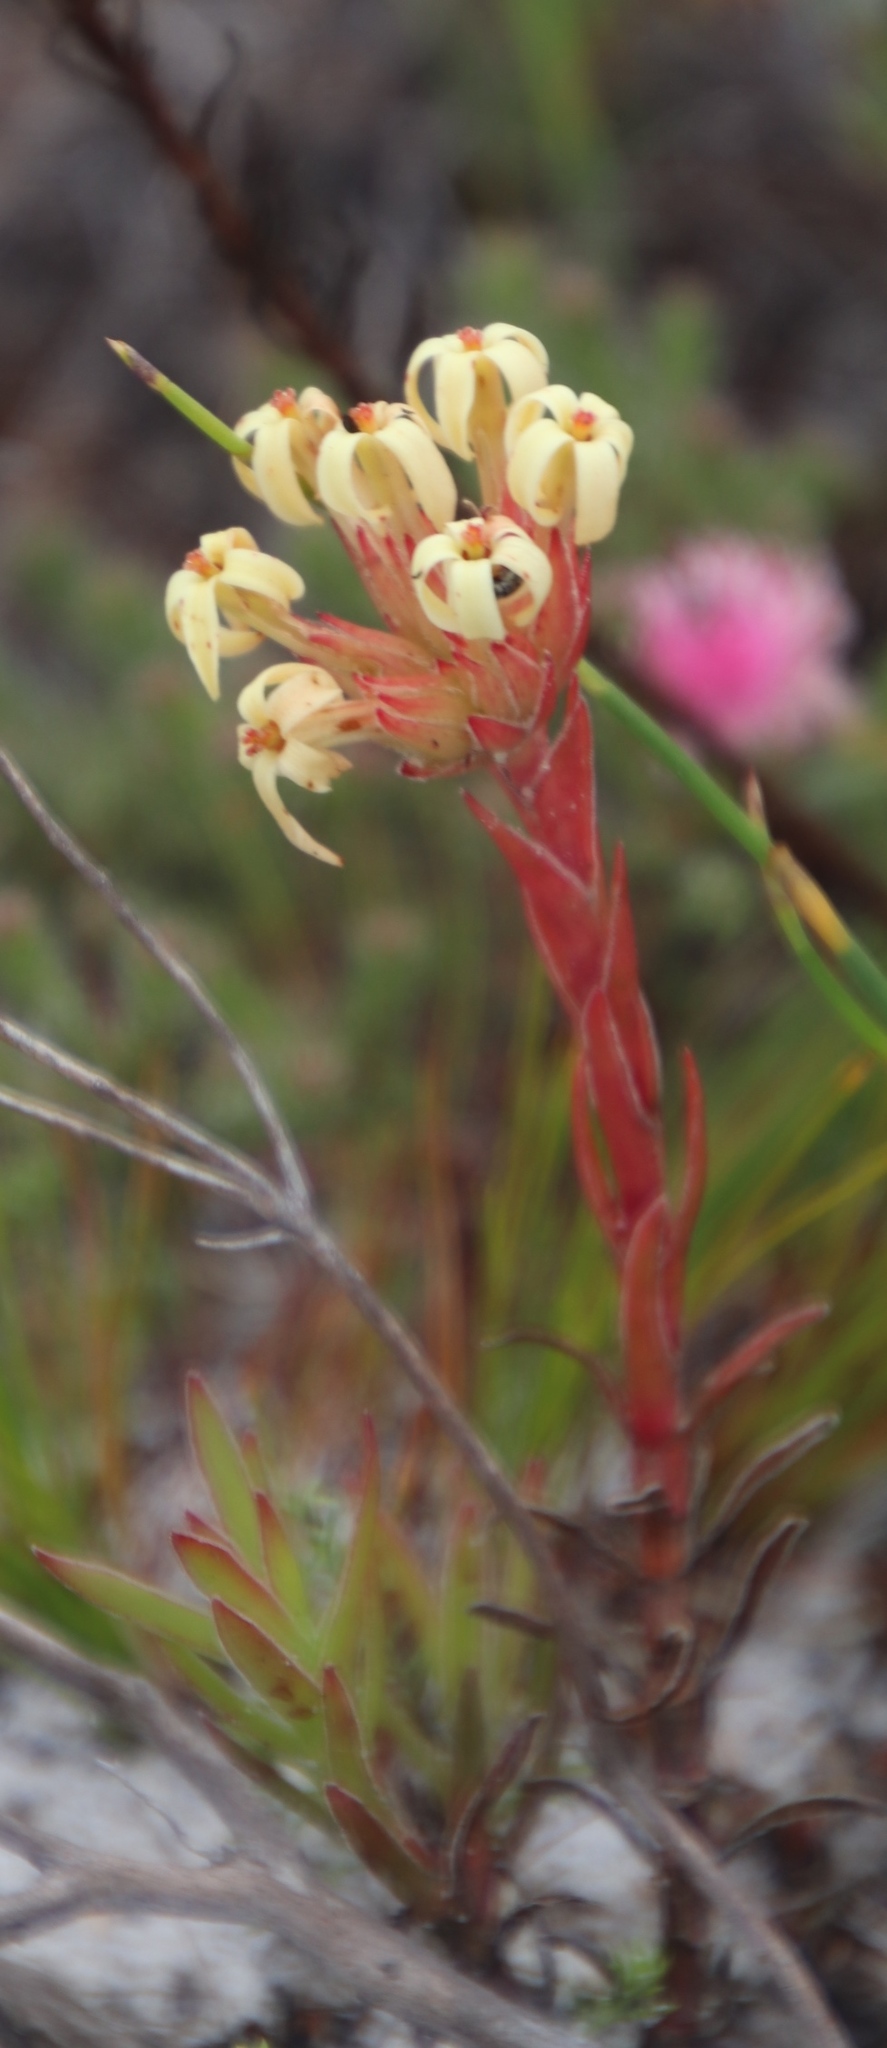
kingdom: Plantae
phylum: Tracheophyta
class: Magnoliopsida
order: Saxifragales
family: Crassulaceae
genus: Crassula
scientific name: Crassula fascicularis
